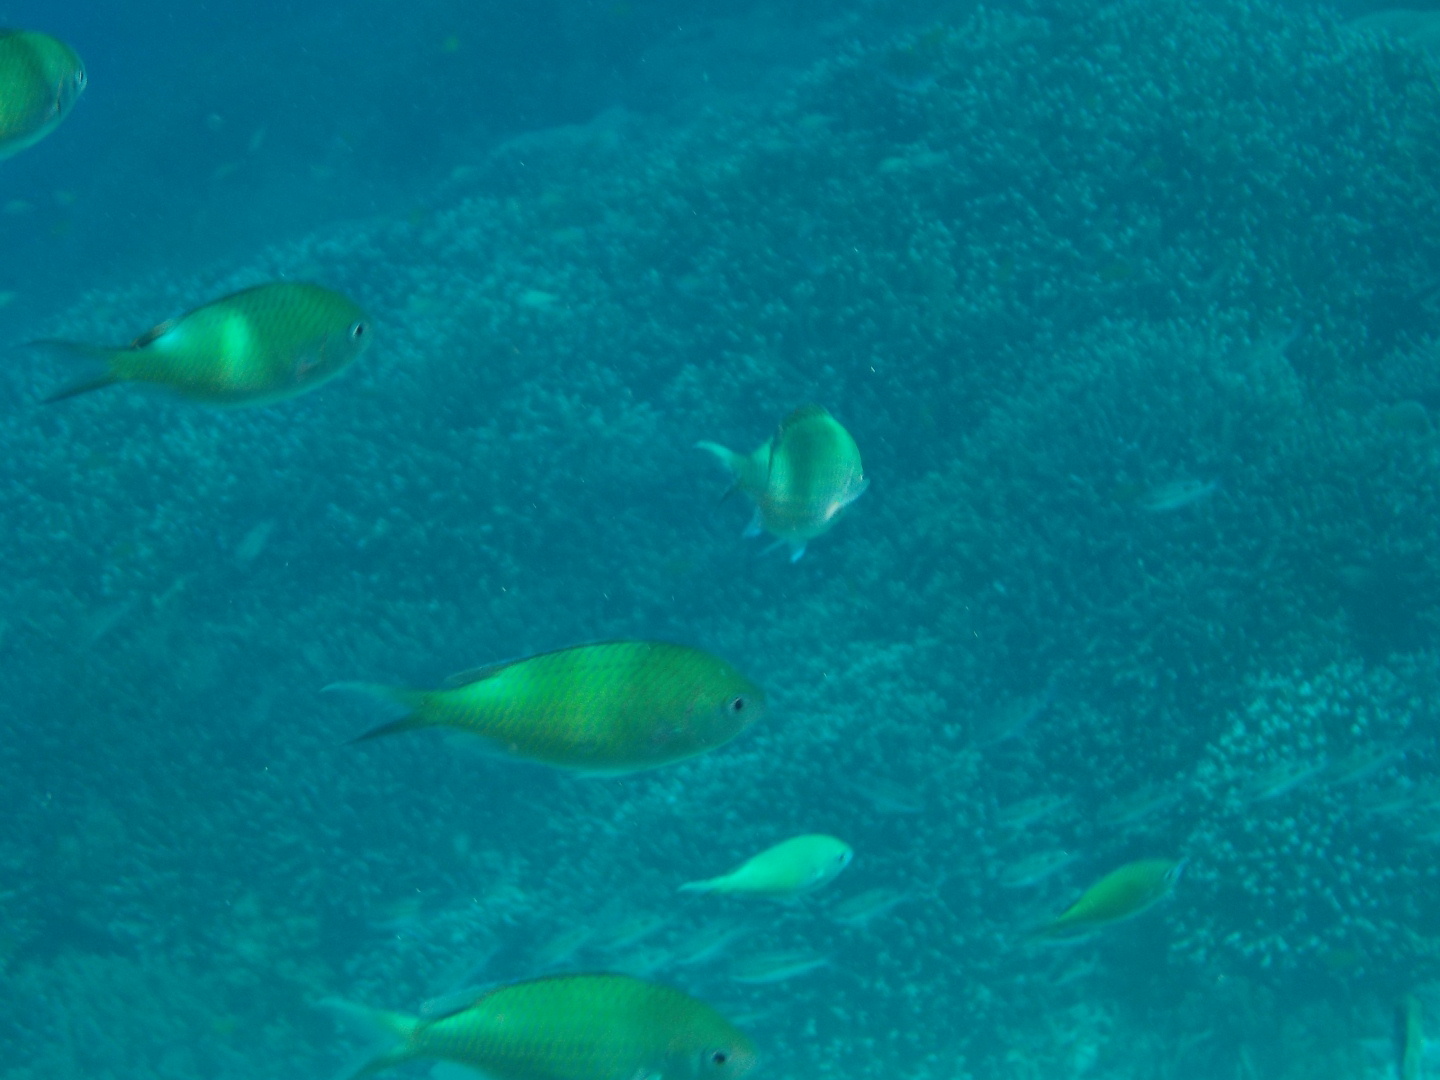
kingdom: Animalia
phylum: Chordata
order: Perciformes
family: Pomacentridae
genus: Chromis
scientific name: Chromis viridis
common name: Blue-green chromis
